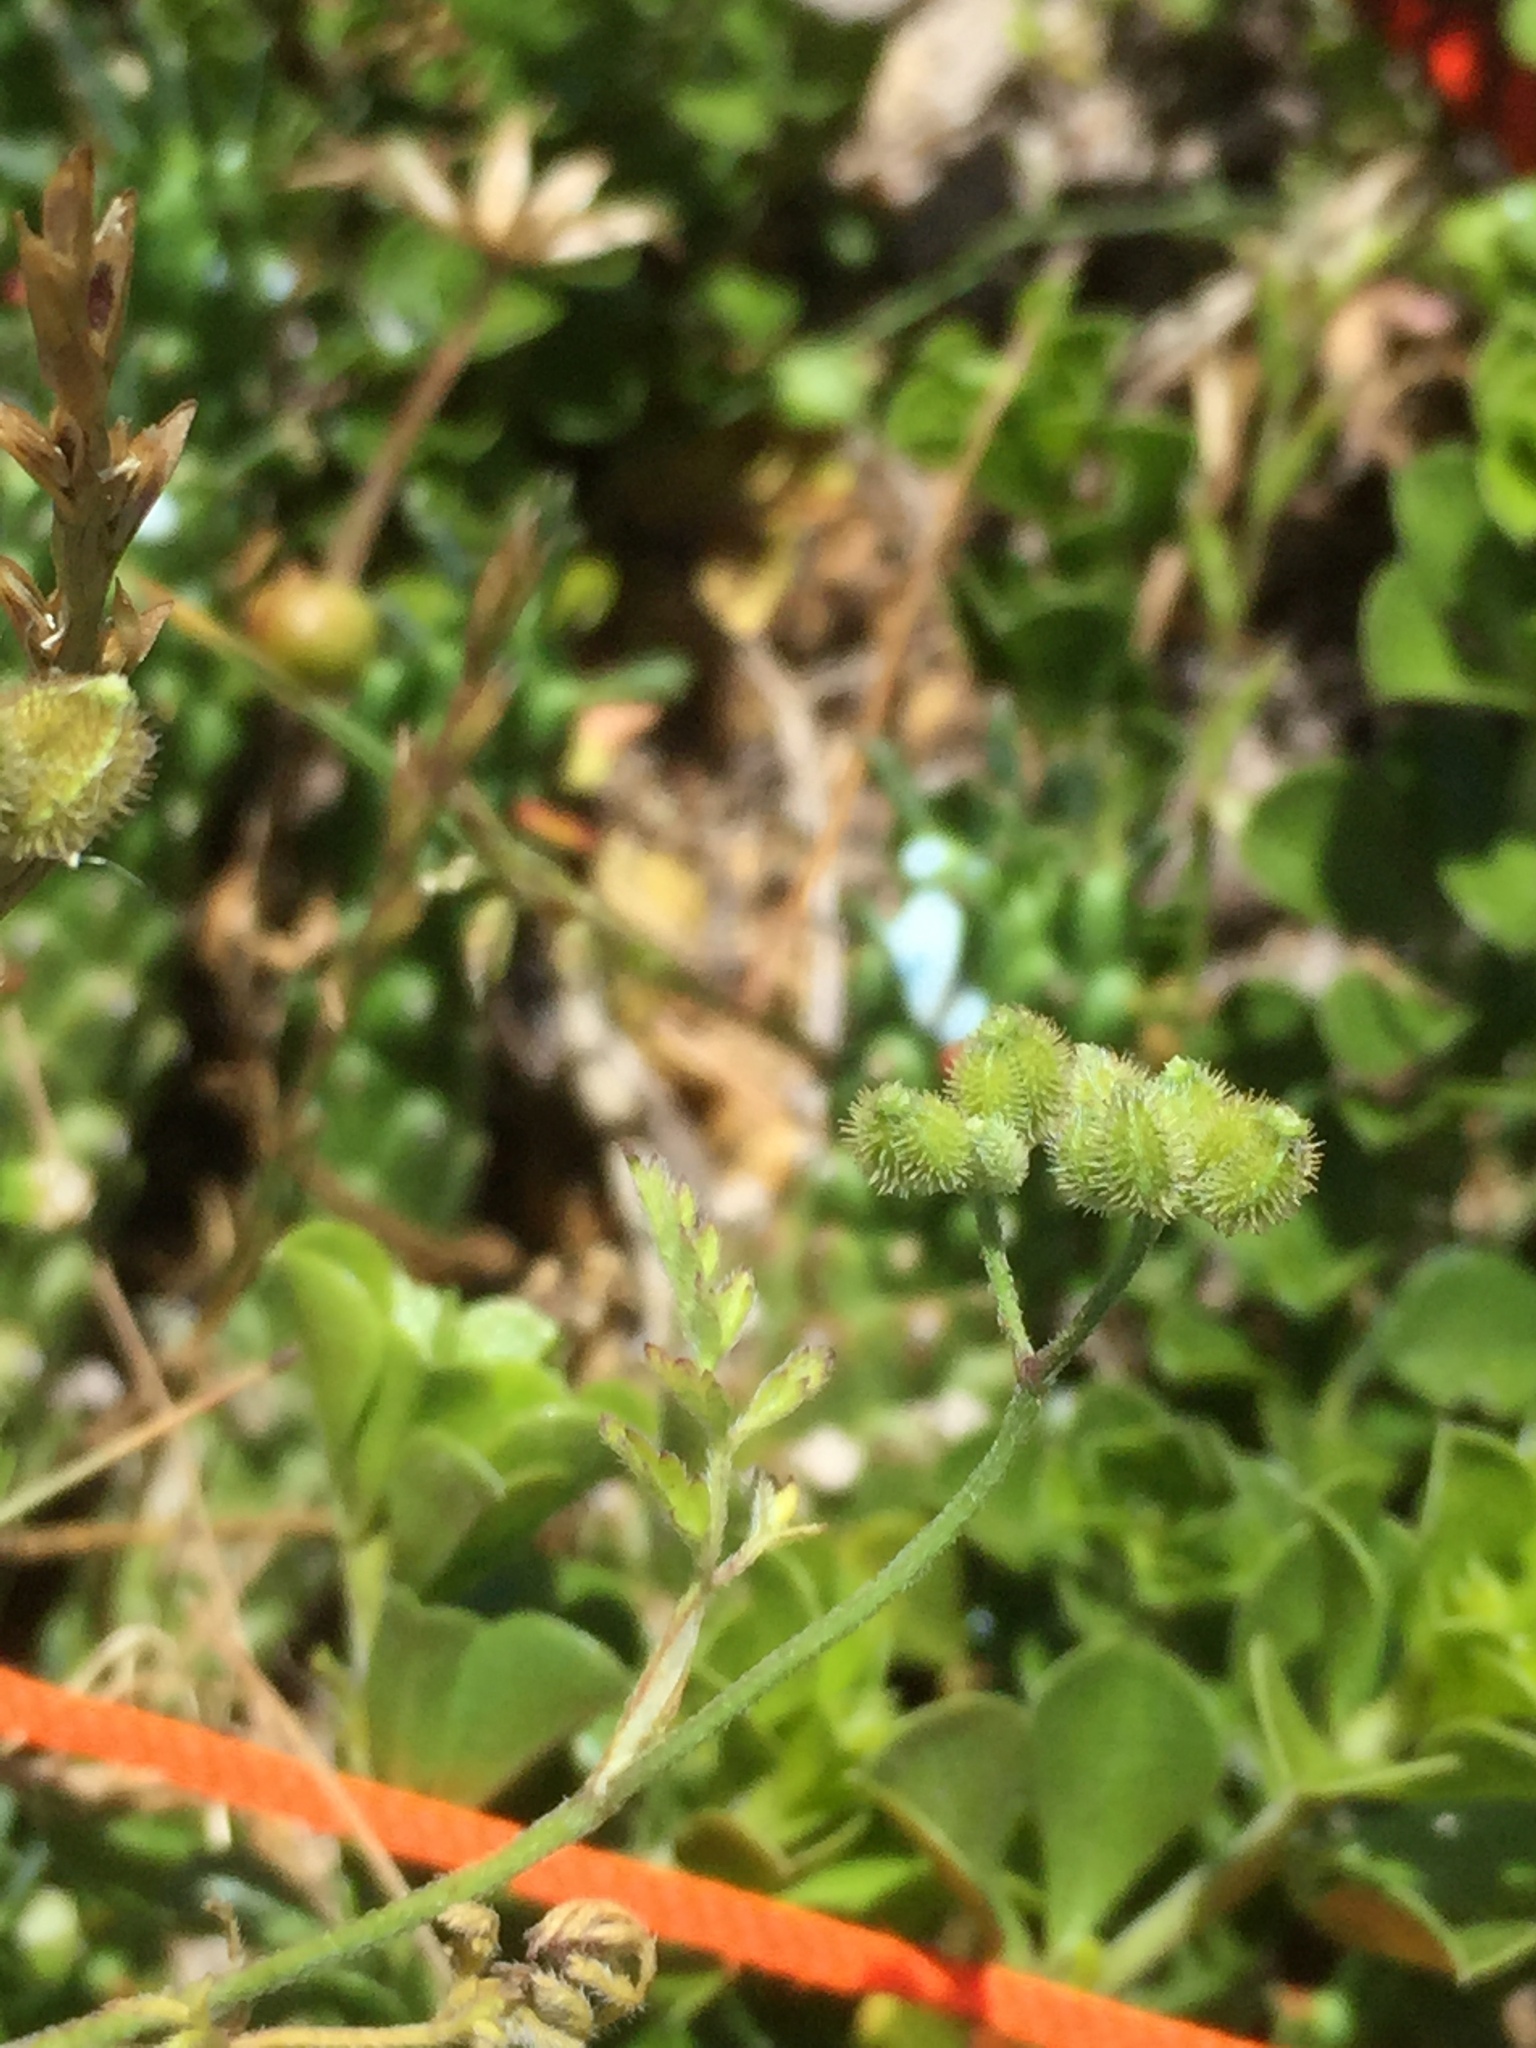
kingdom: Plantae
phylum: Tracheophyta
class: Magnoliopsida
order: Apiales
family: Apiaceae
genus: Torilis
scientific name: Torilis africana
